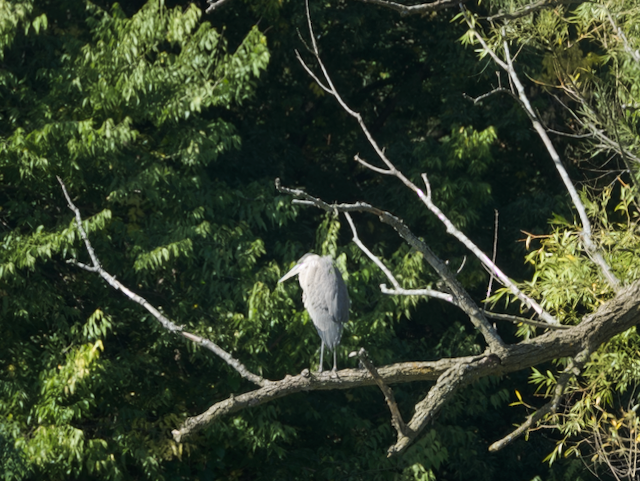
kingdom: Animalia
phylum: Chordata
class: Aves
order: Pelecaniformes
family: Ardeidae
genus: Ardea
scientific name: Ardea herodias
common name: Great blue heron
